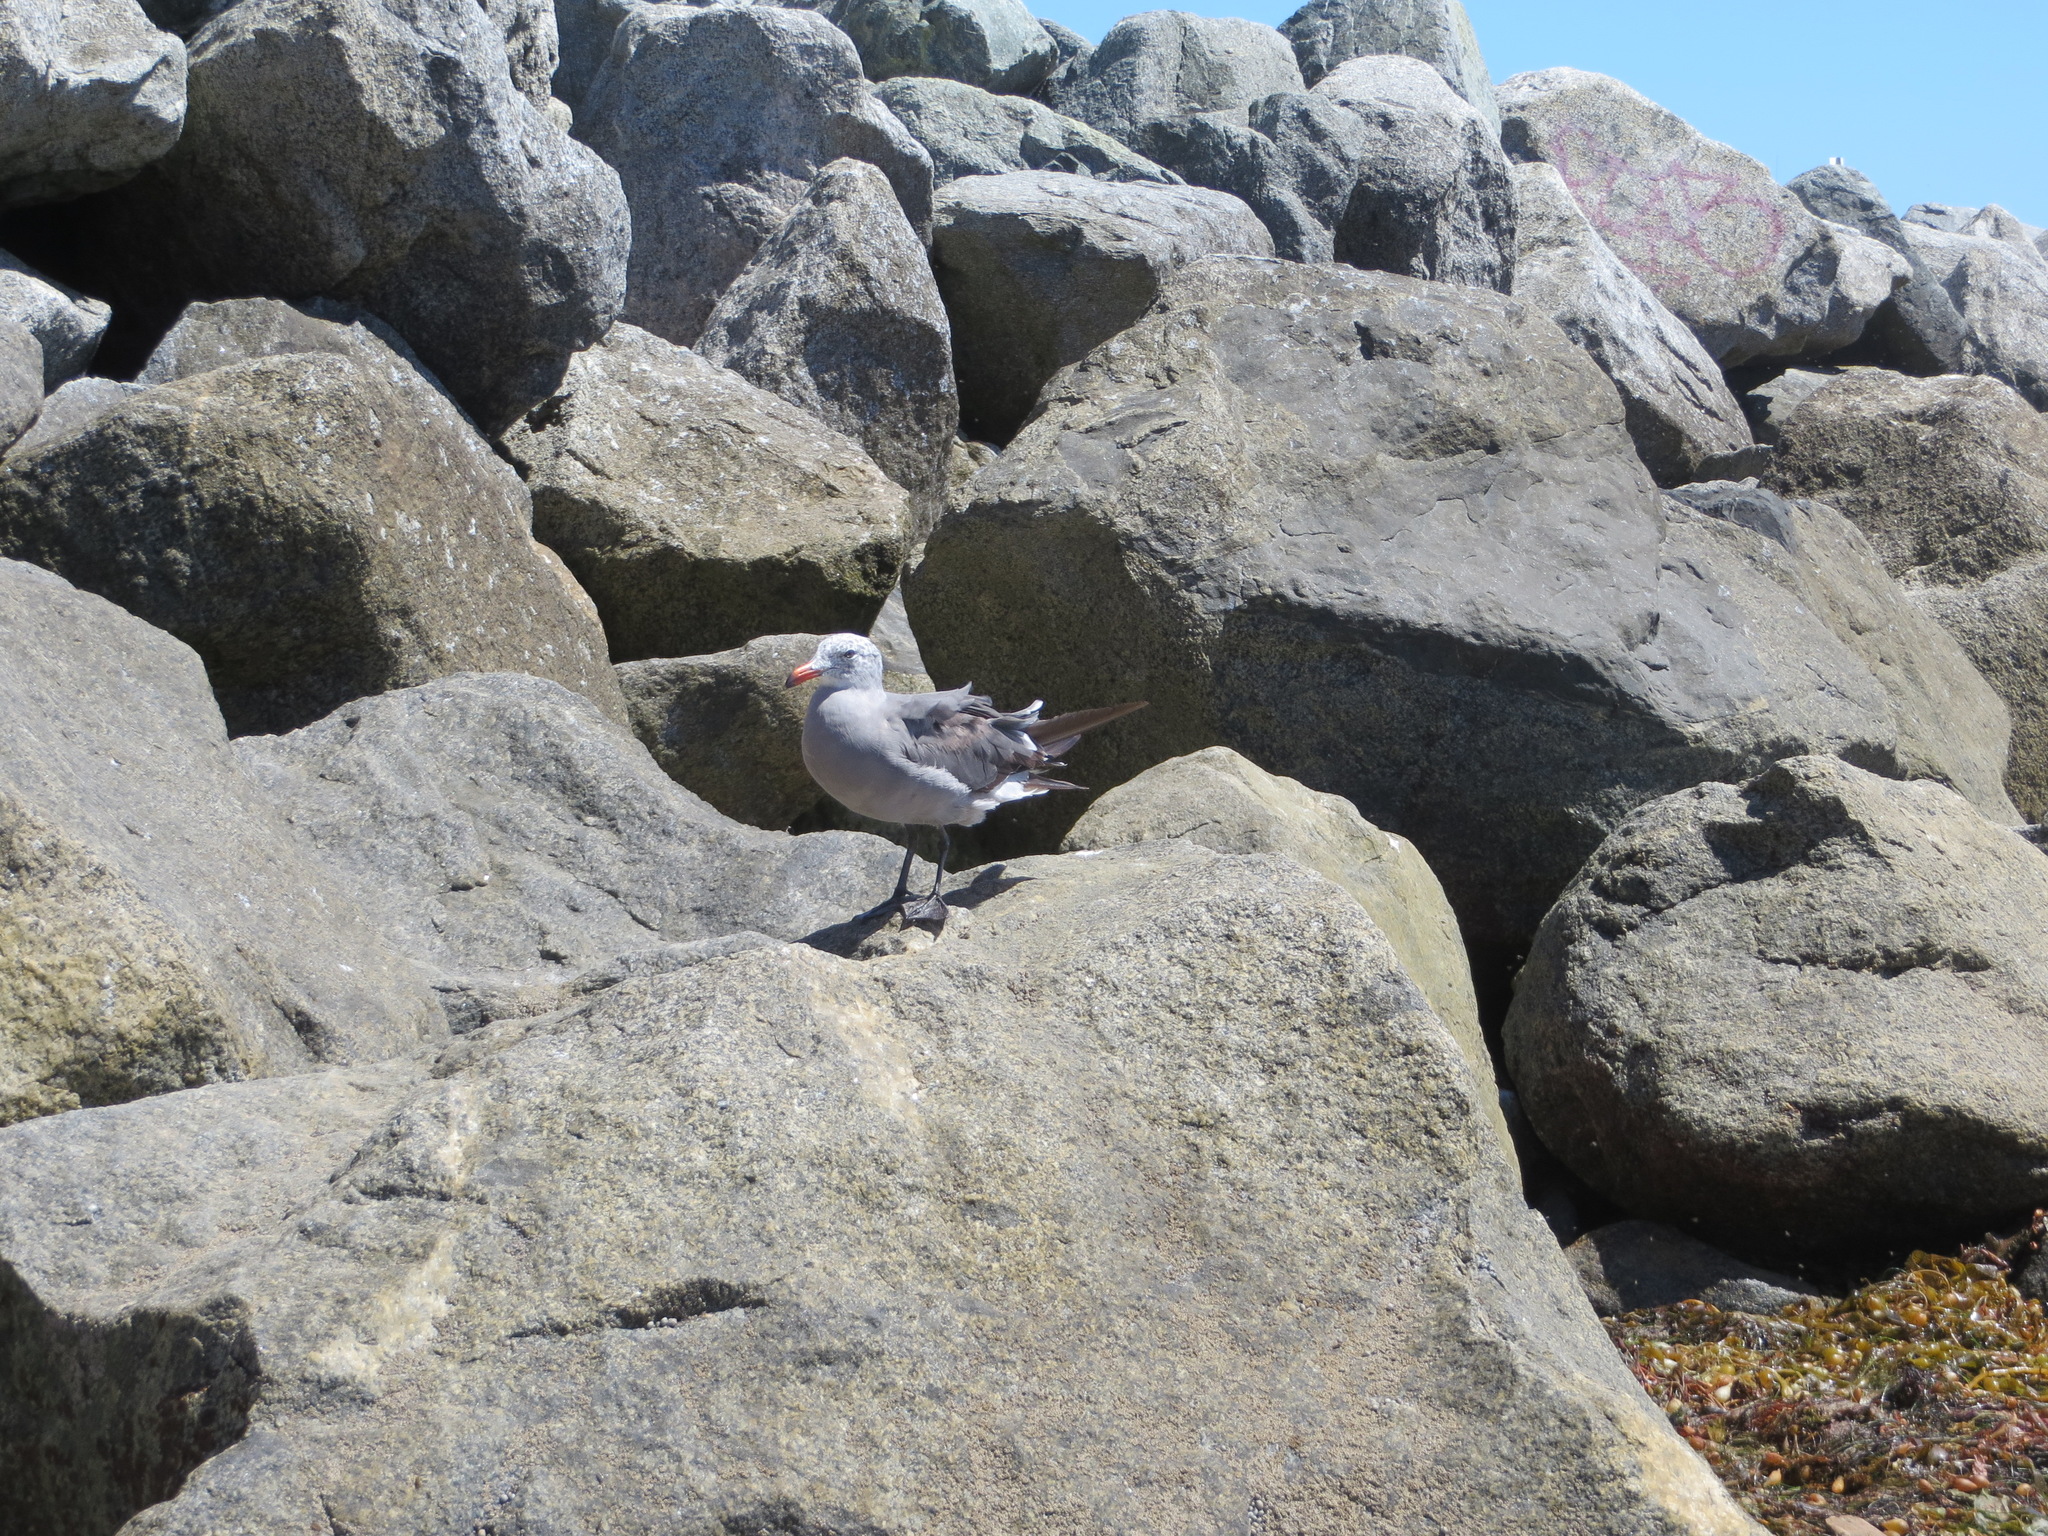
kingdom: Animalia
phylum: Chordata
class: Aves
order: Charadriiformes
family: Laridae
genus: Larus
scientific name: Larus heermanni
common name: Heermann's gull
